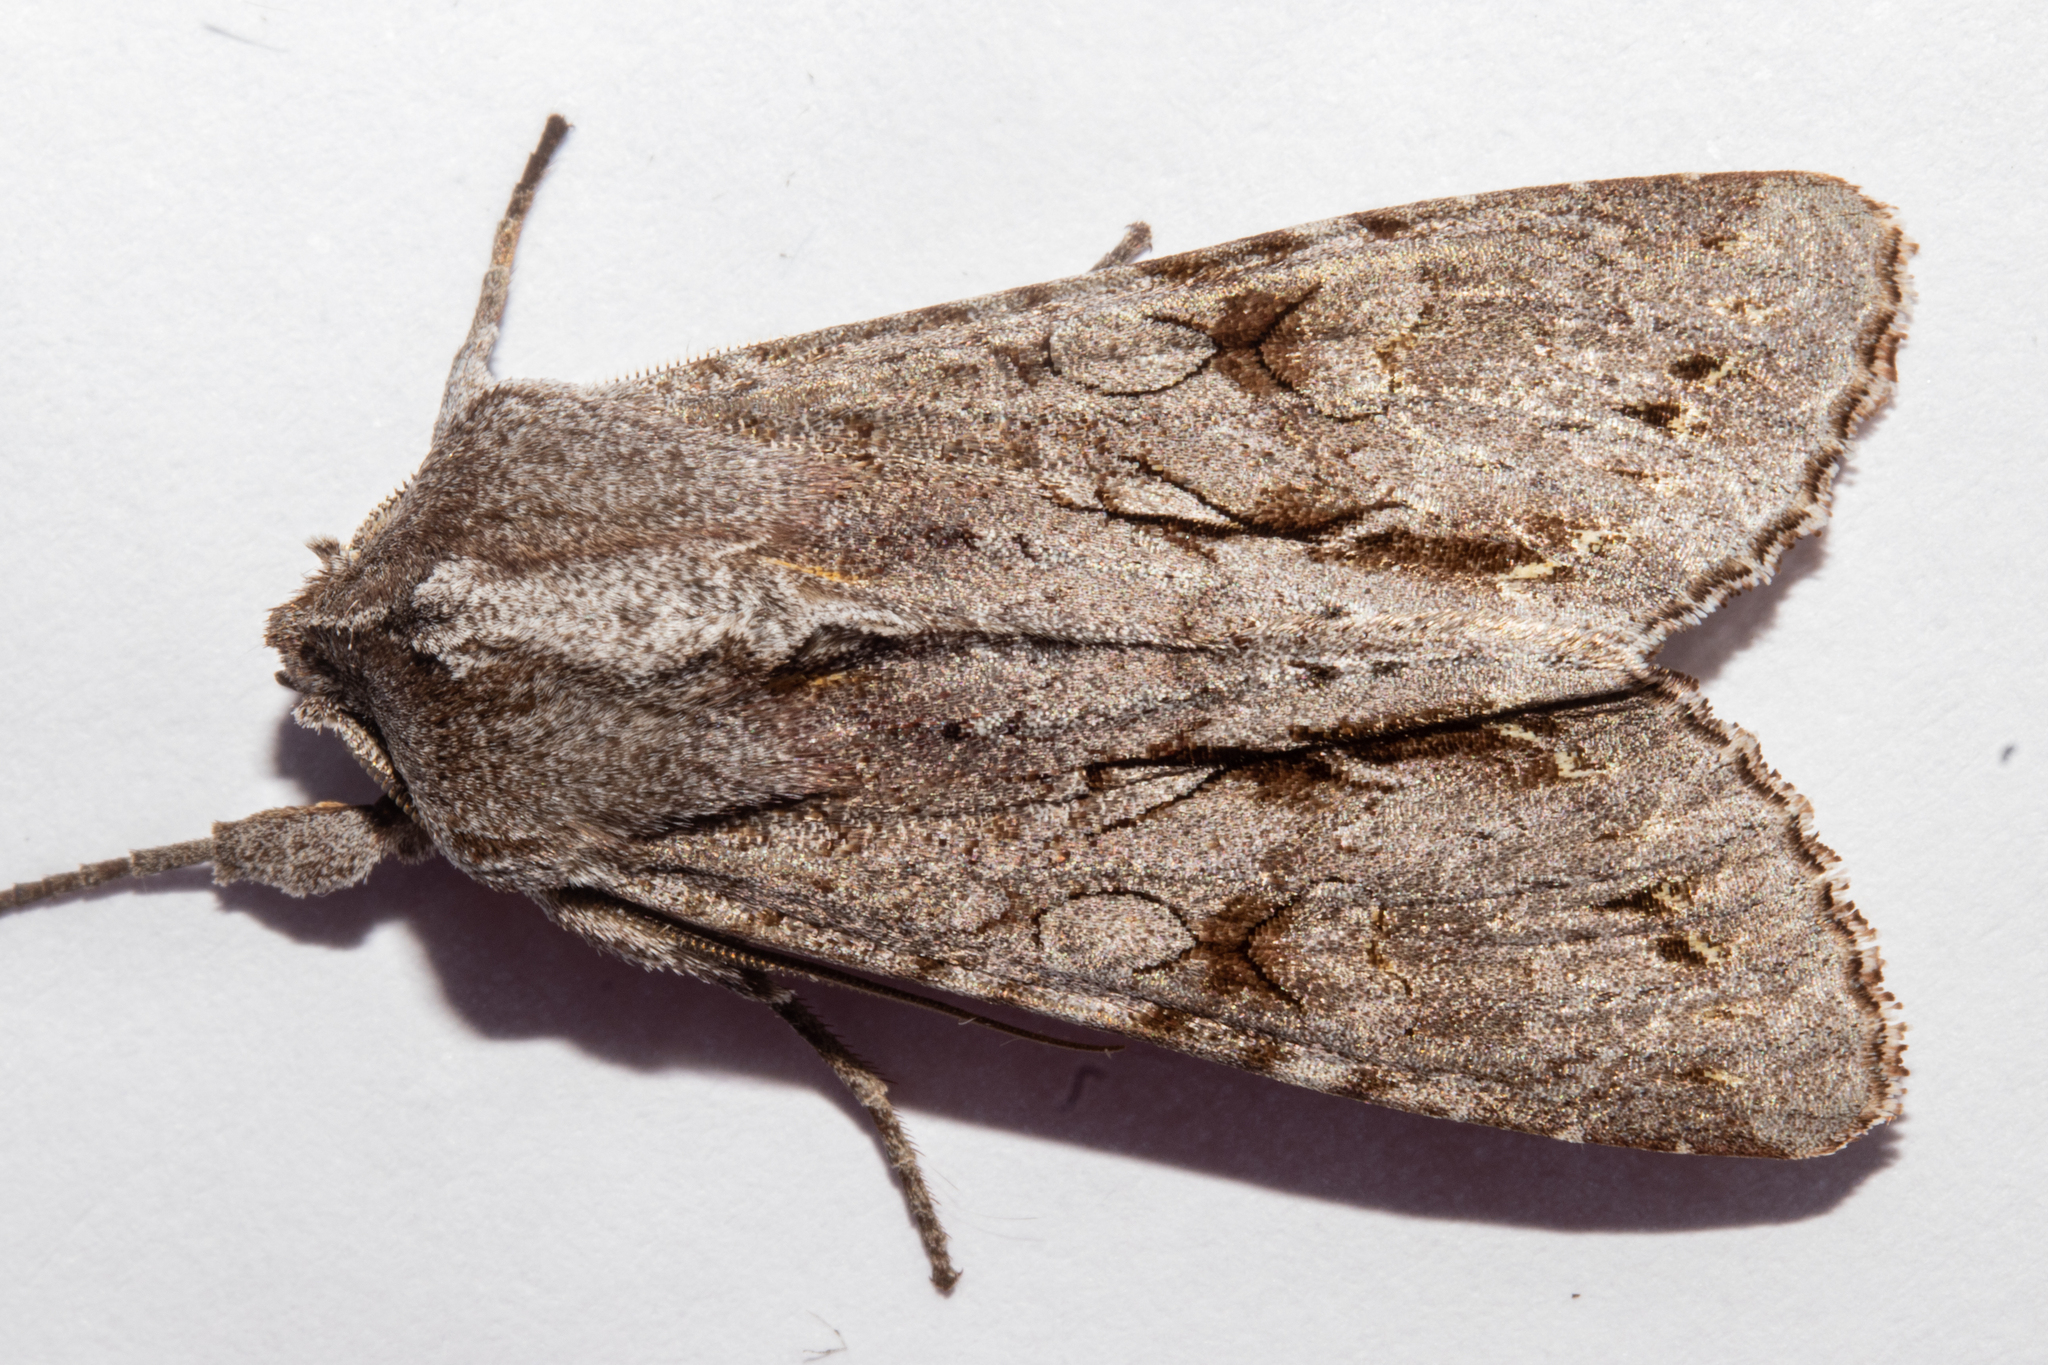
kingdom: Animalia
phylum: Arthropoda
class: Insecta
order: Lepidoptera
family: Noctuidae
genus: Ichneutica
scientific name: Ichneutica
